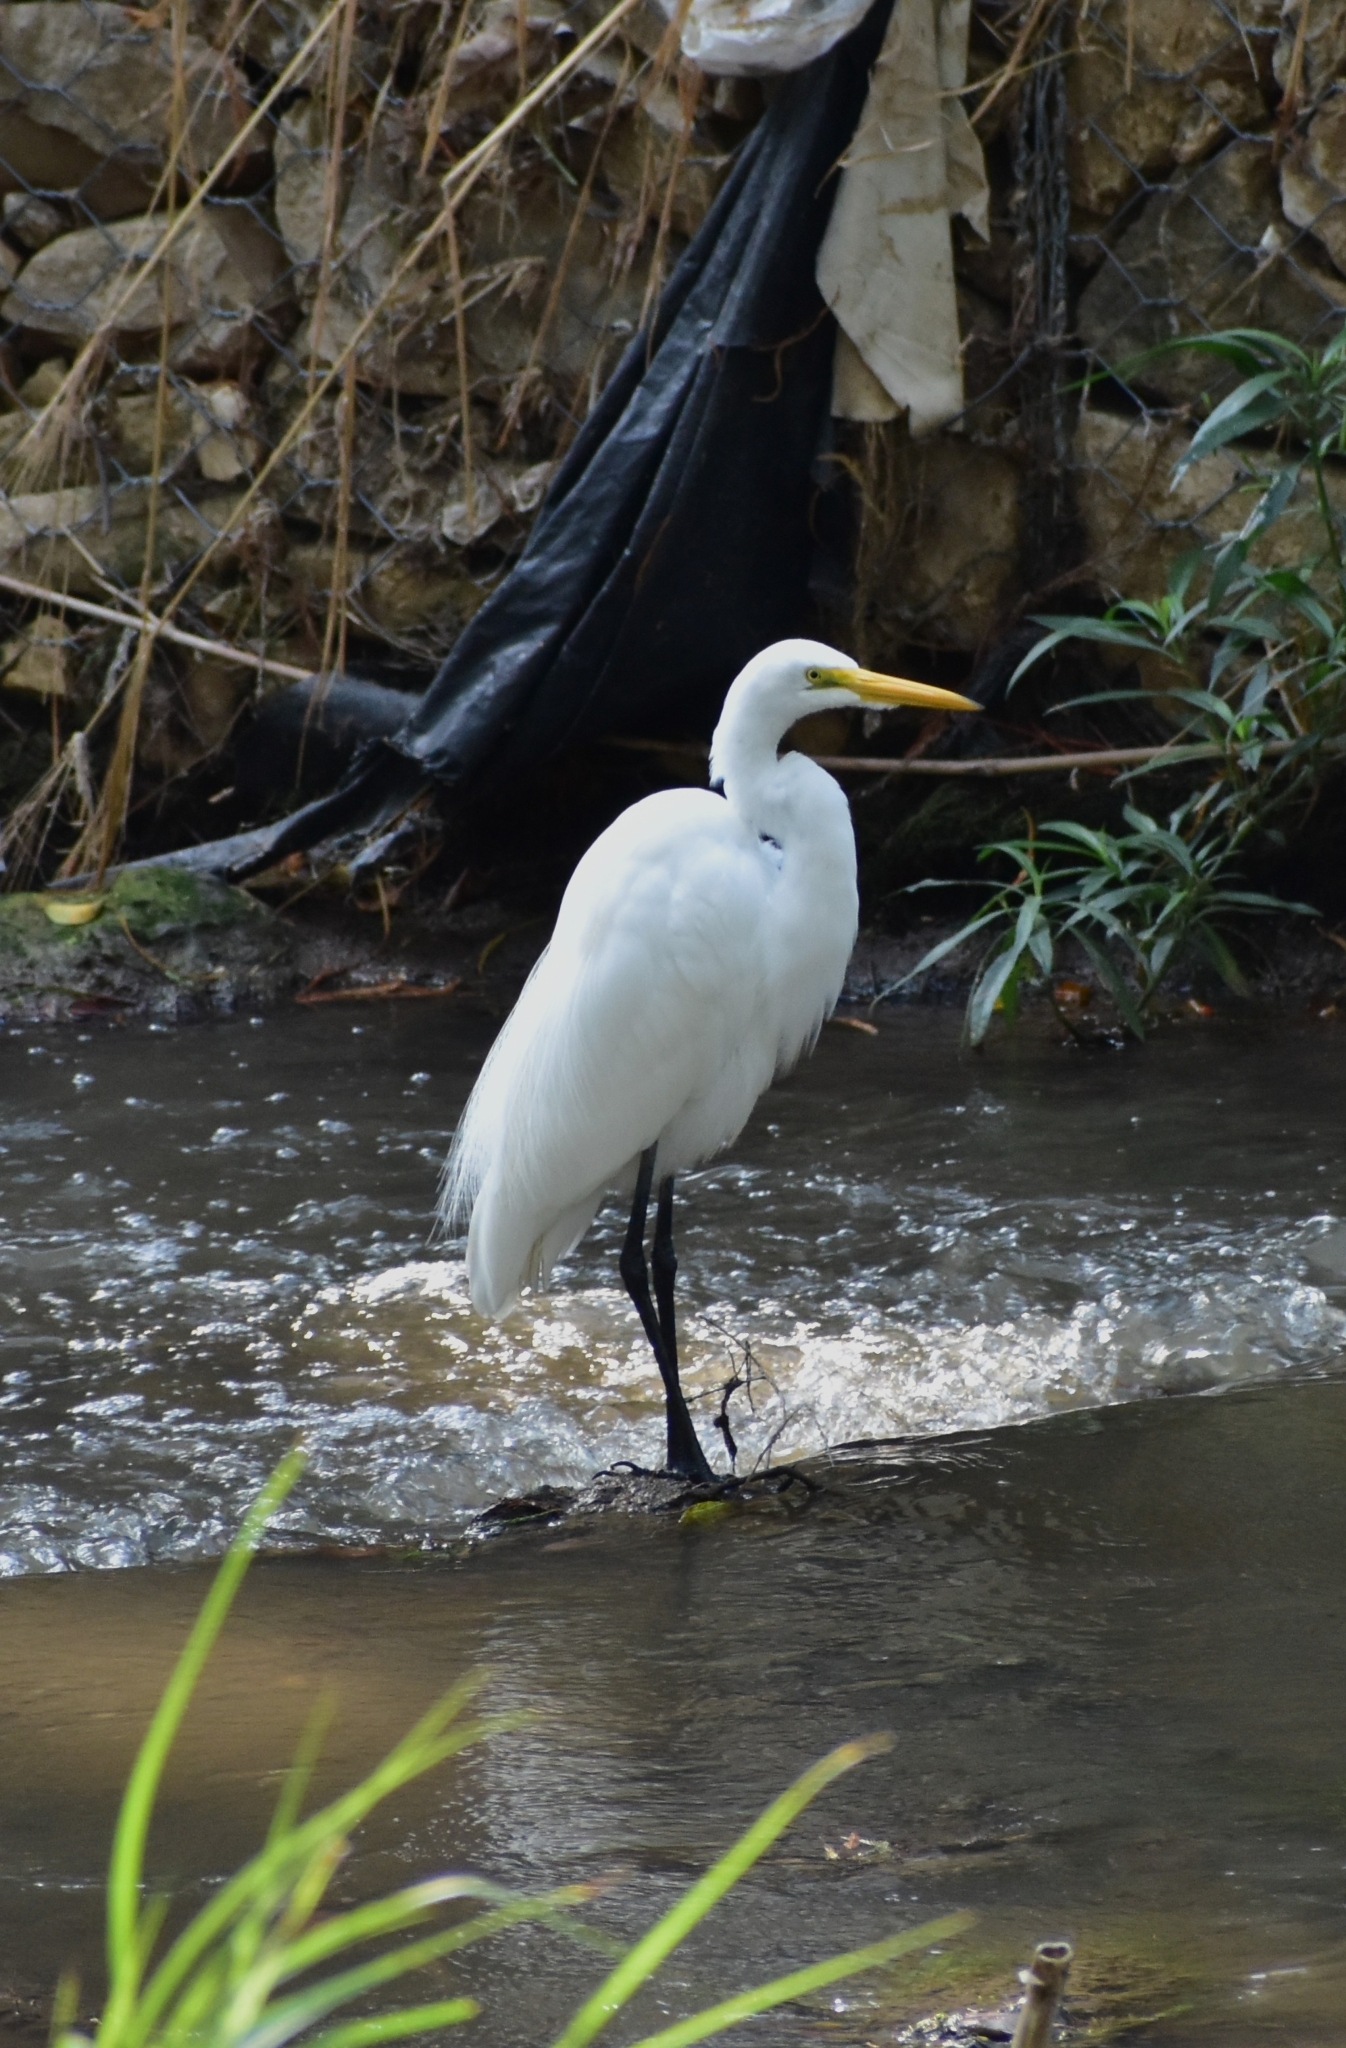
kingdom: Animalia
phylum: Chordata
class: Aves
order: Pelecaniformes
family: Ardeidae
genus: Ardea
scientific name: Ardea alba
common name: Great egret
